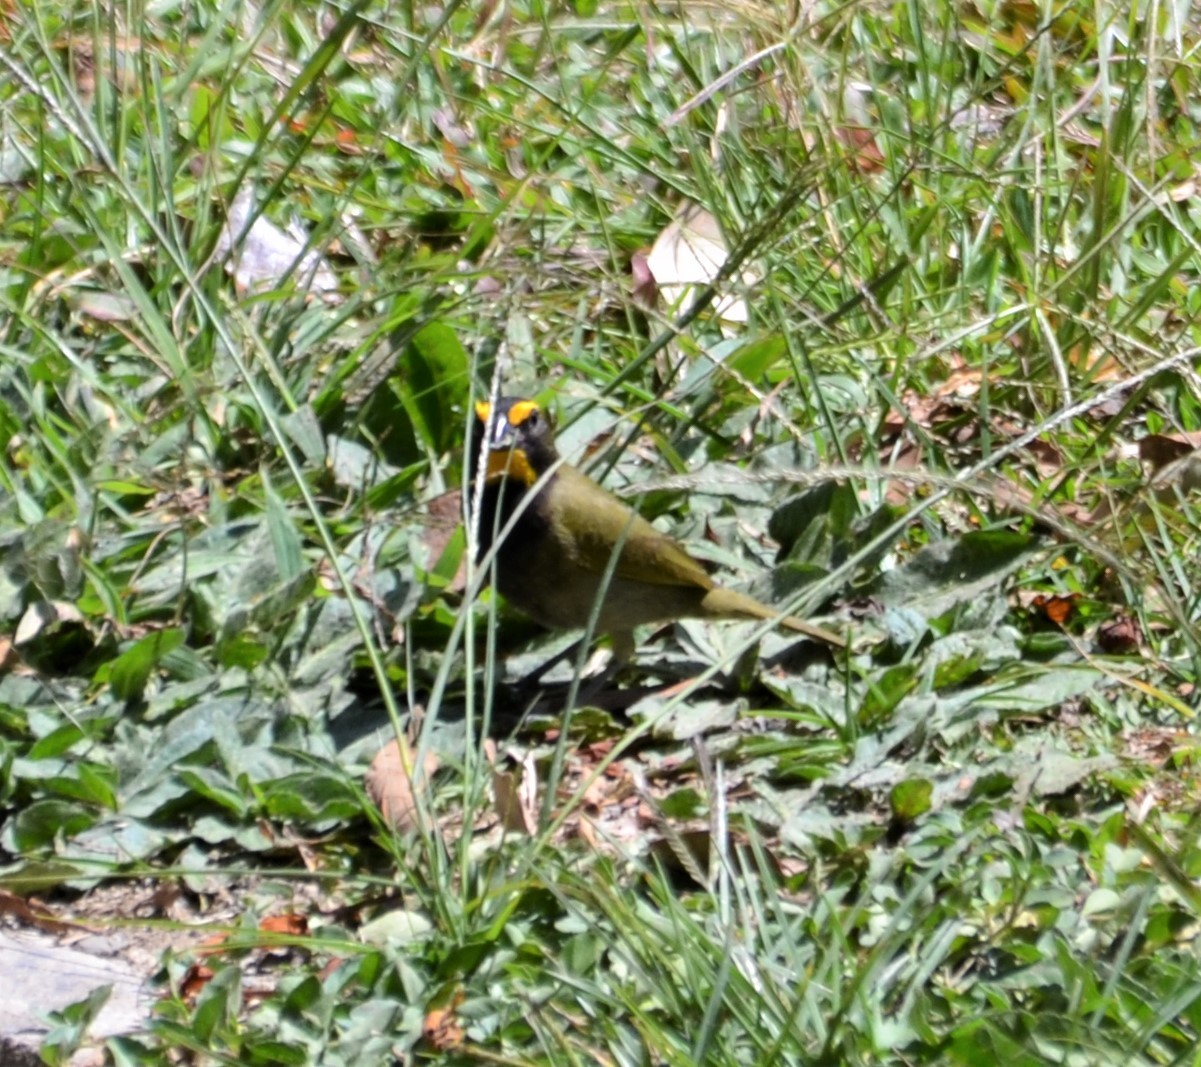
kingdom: Animalia
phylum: Chordata
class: Aves
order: Passeriformes
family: Thraupidae
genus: Tiaris
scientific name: Tiaris olivaceus
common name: Yellow-faced grassquit
